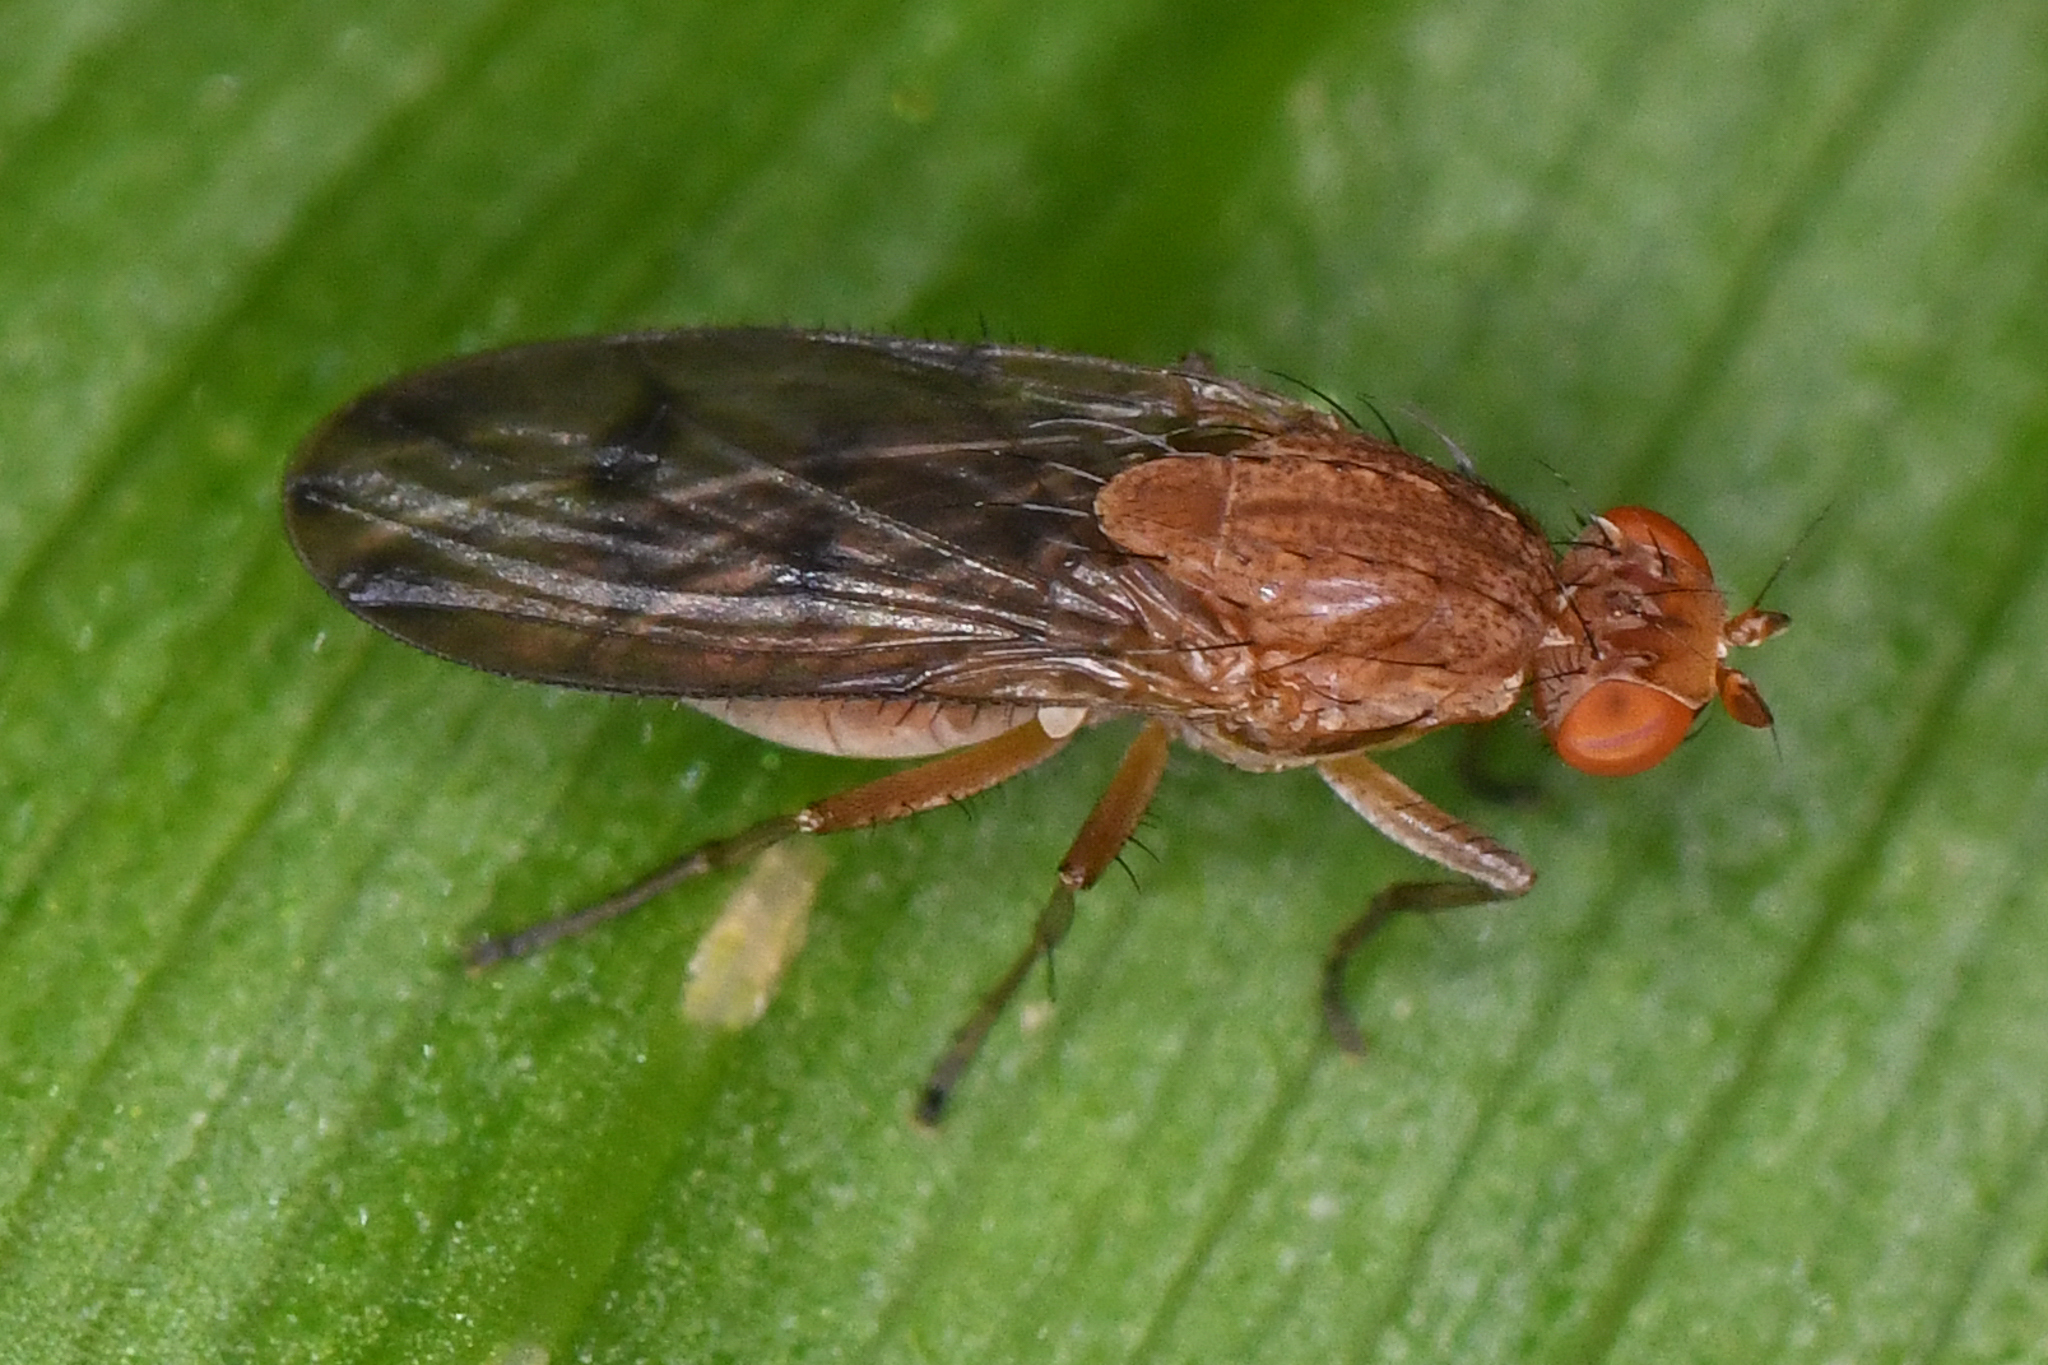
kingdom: Animalia
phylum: Arthropoda
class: Insecta
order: Diptera
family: Heleomyzidae
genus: Suillia
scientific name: Suillia nemorum
